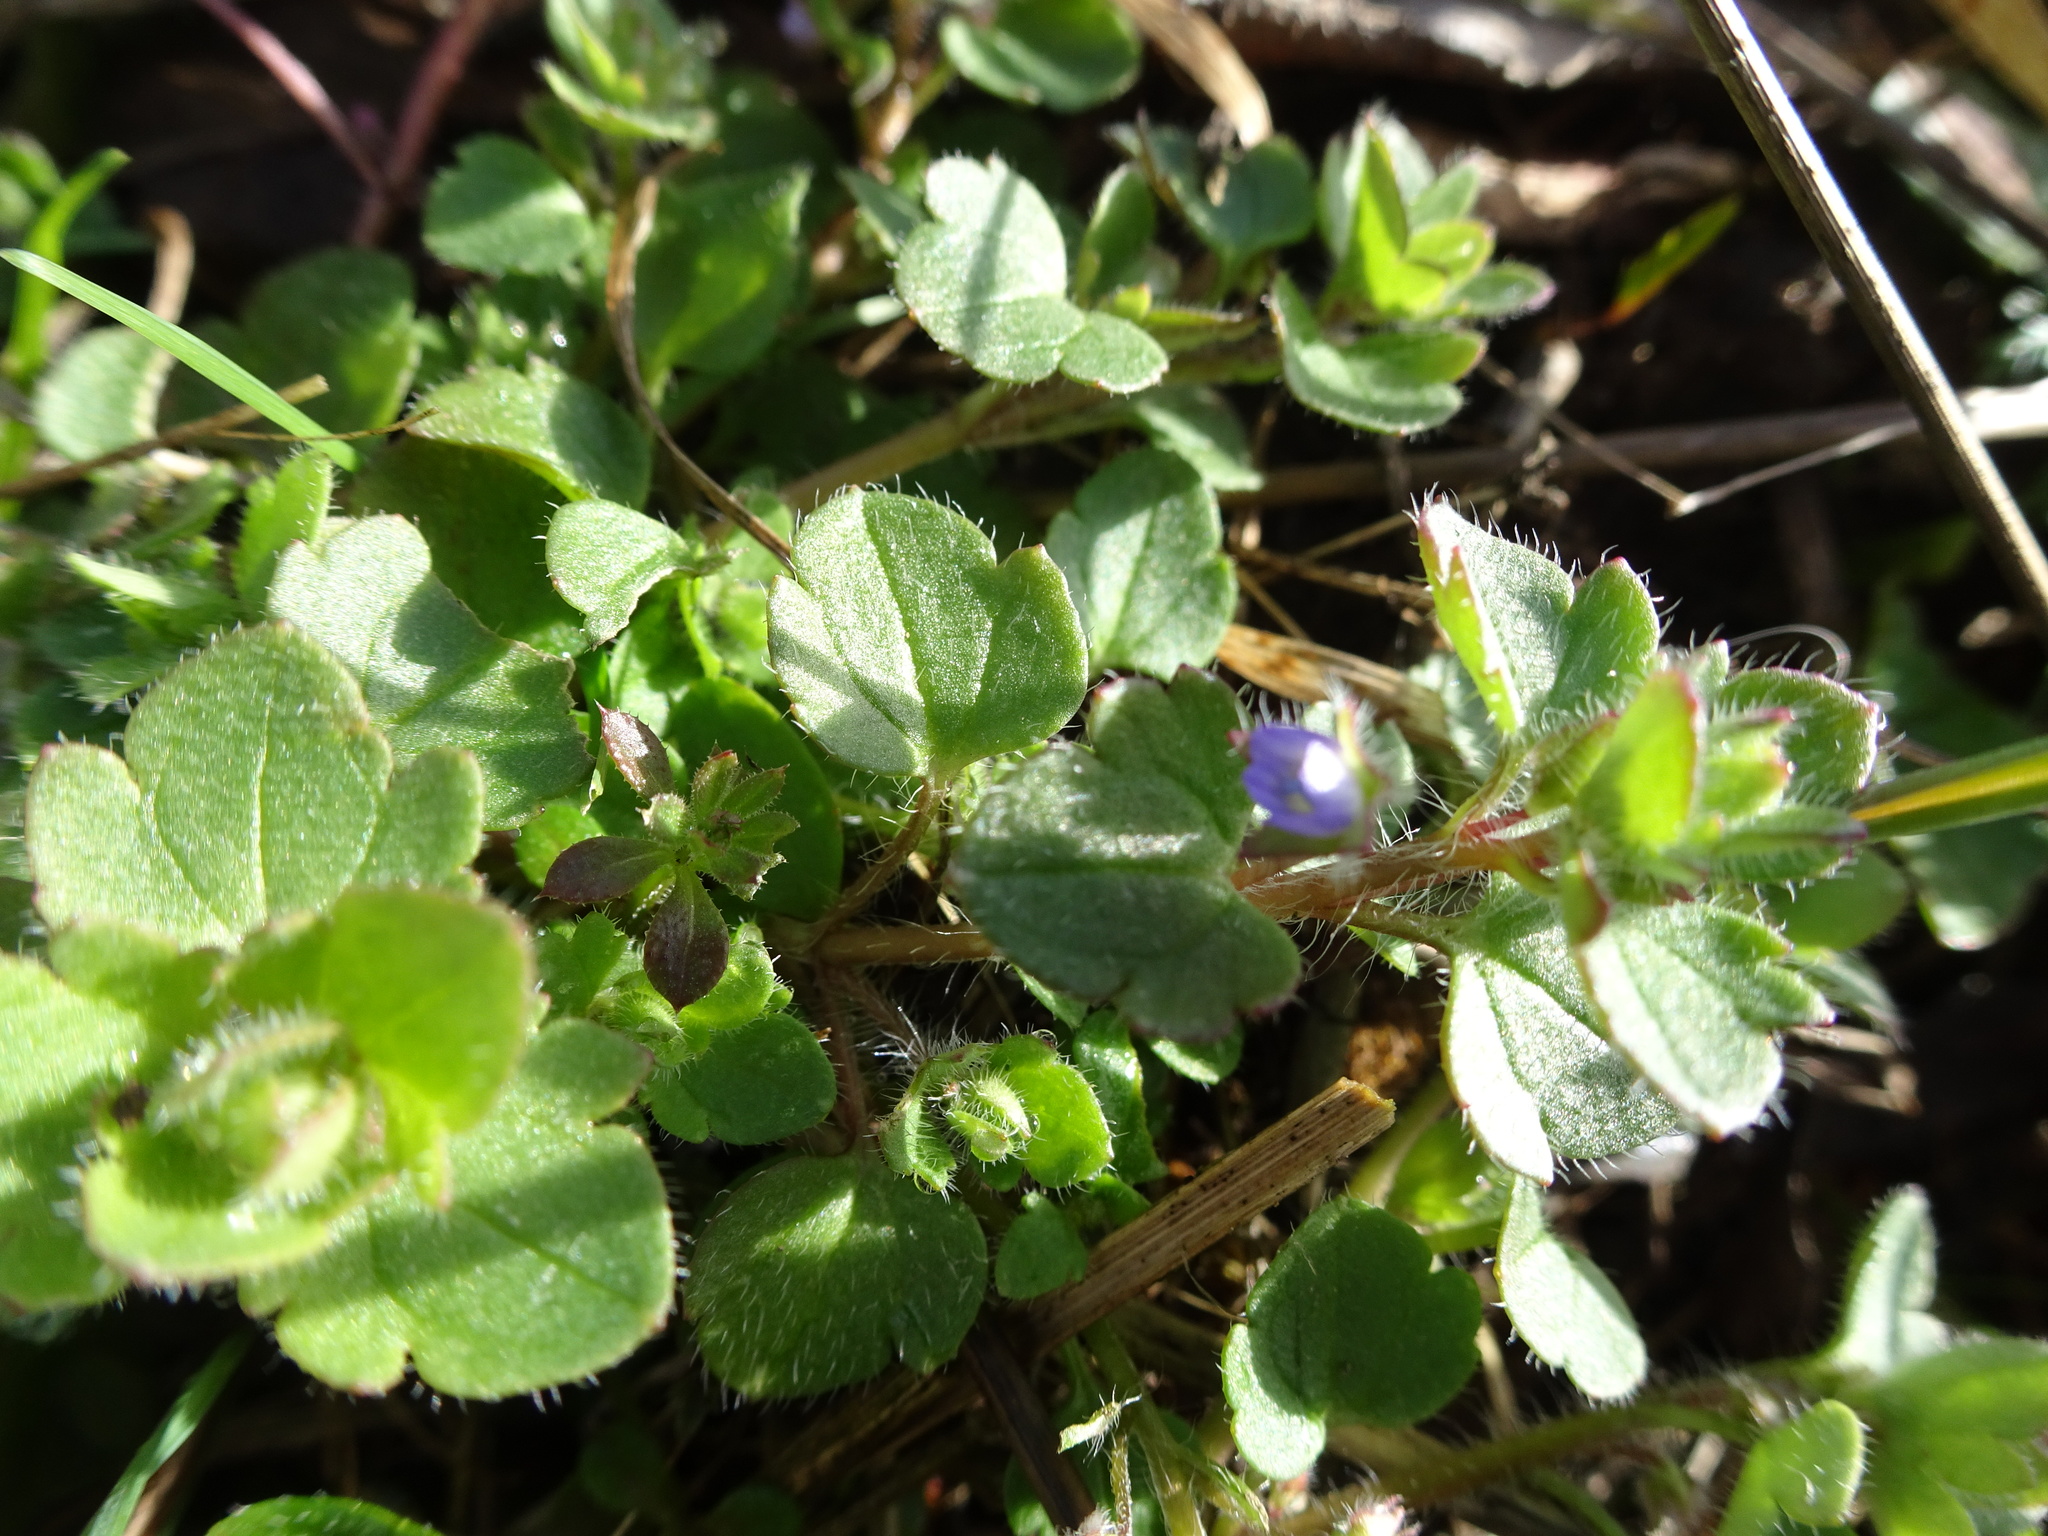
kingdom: Plantae
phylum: Tracheophyta
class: Magnoliopsida
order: Lamiales
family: Plantaginaceae
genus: Veronica
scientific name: Veronica hederifolia
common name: Ivy-leaved speedwell
